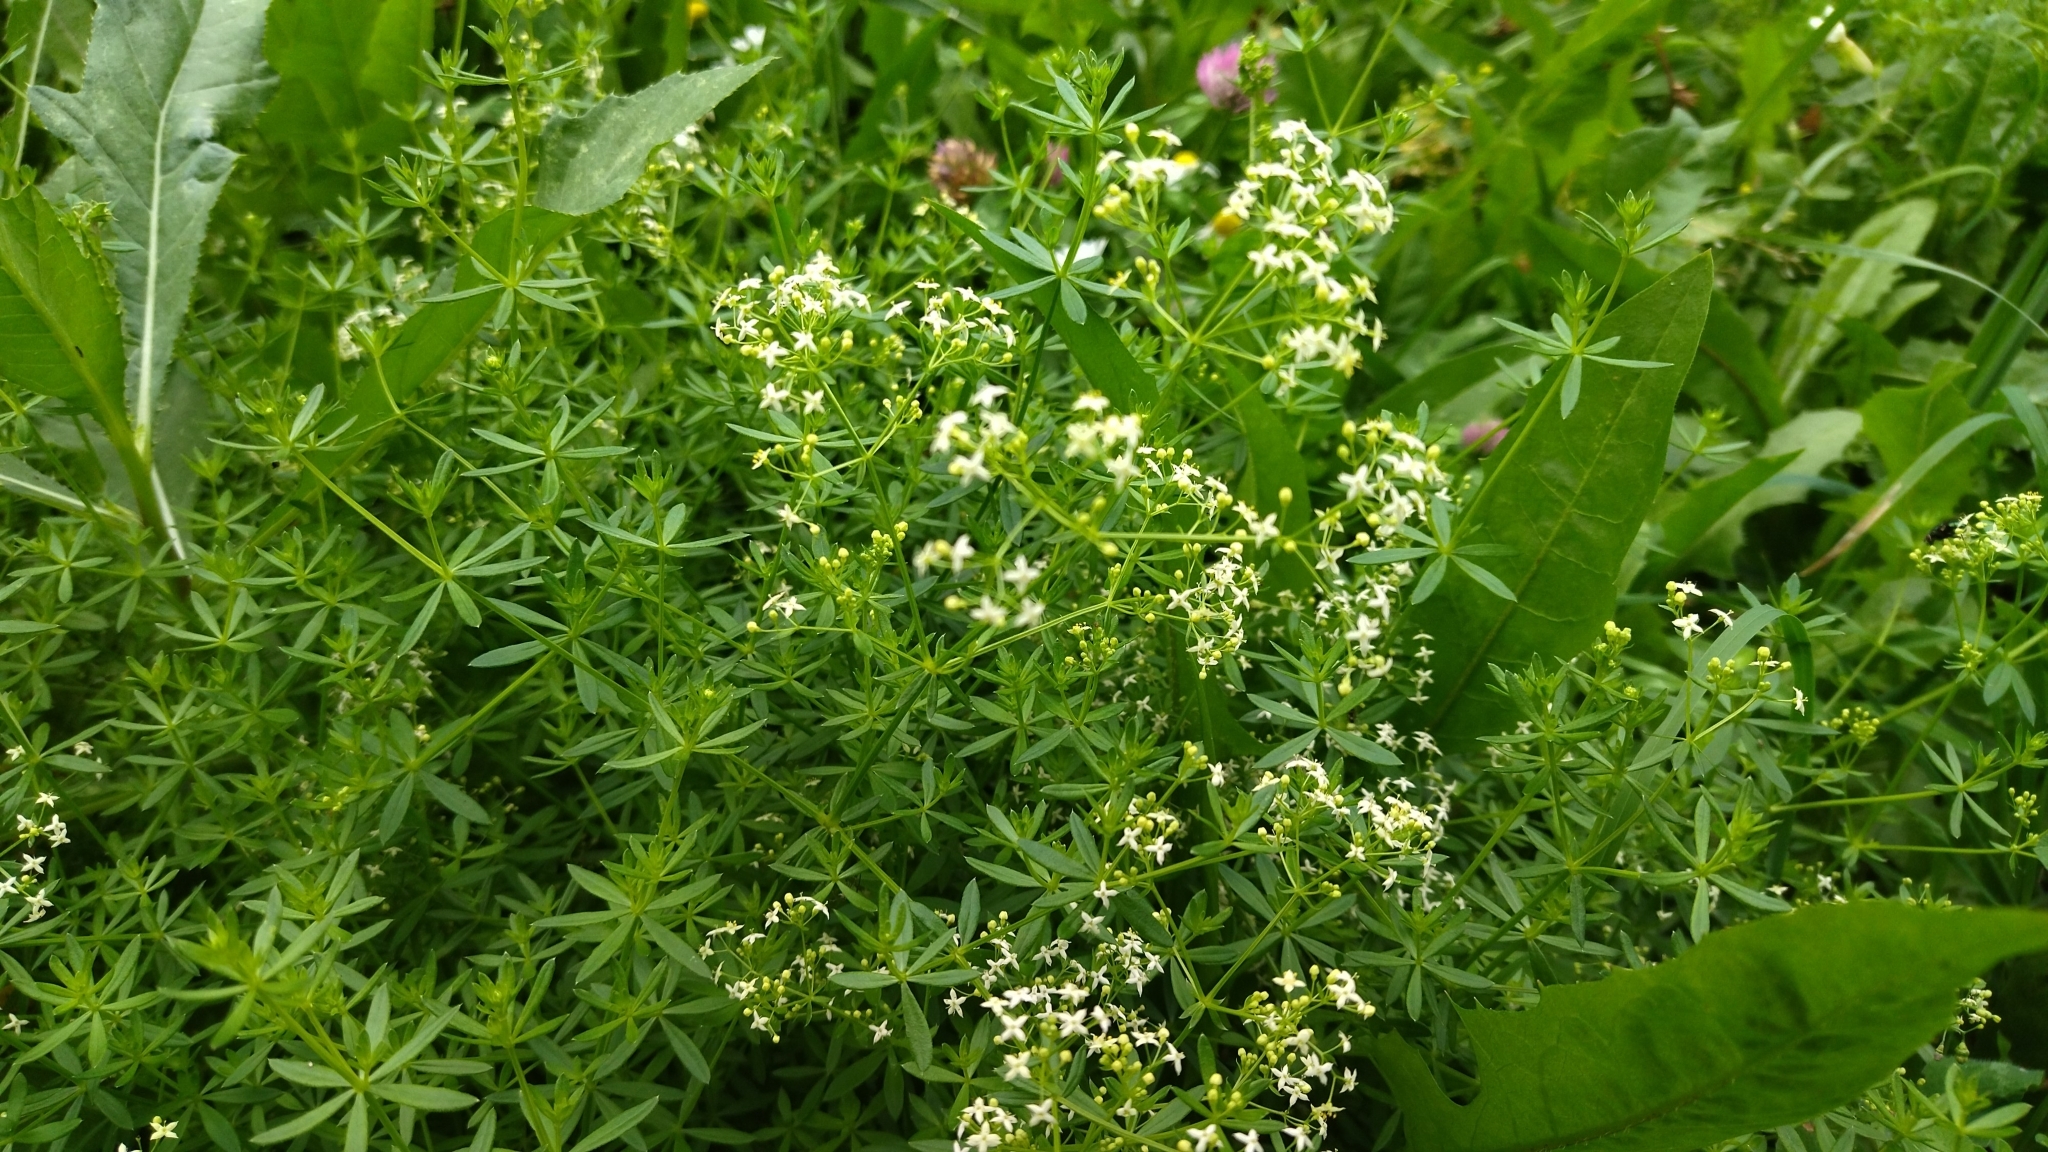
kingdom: Plantae
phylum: Tracheophyta
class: Magnoliopsida
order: Gentianales
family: Rubiaceae
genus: Galium
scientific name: Galium mollugo
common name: Hedge bedstraw
